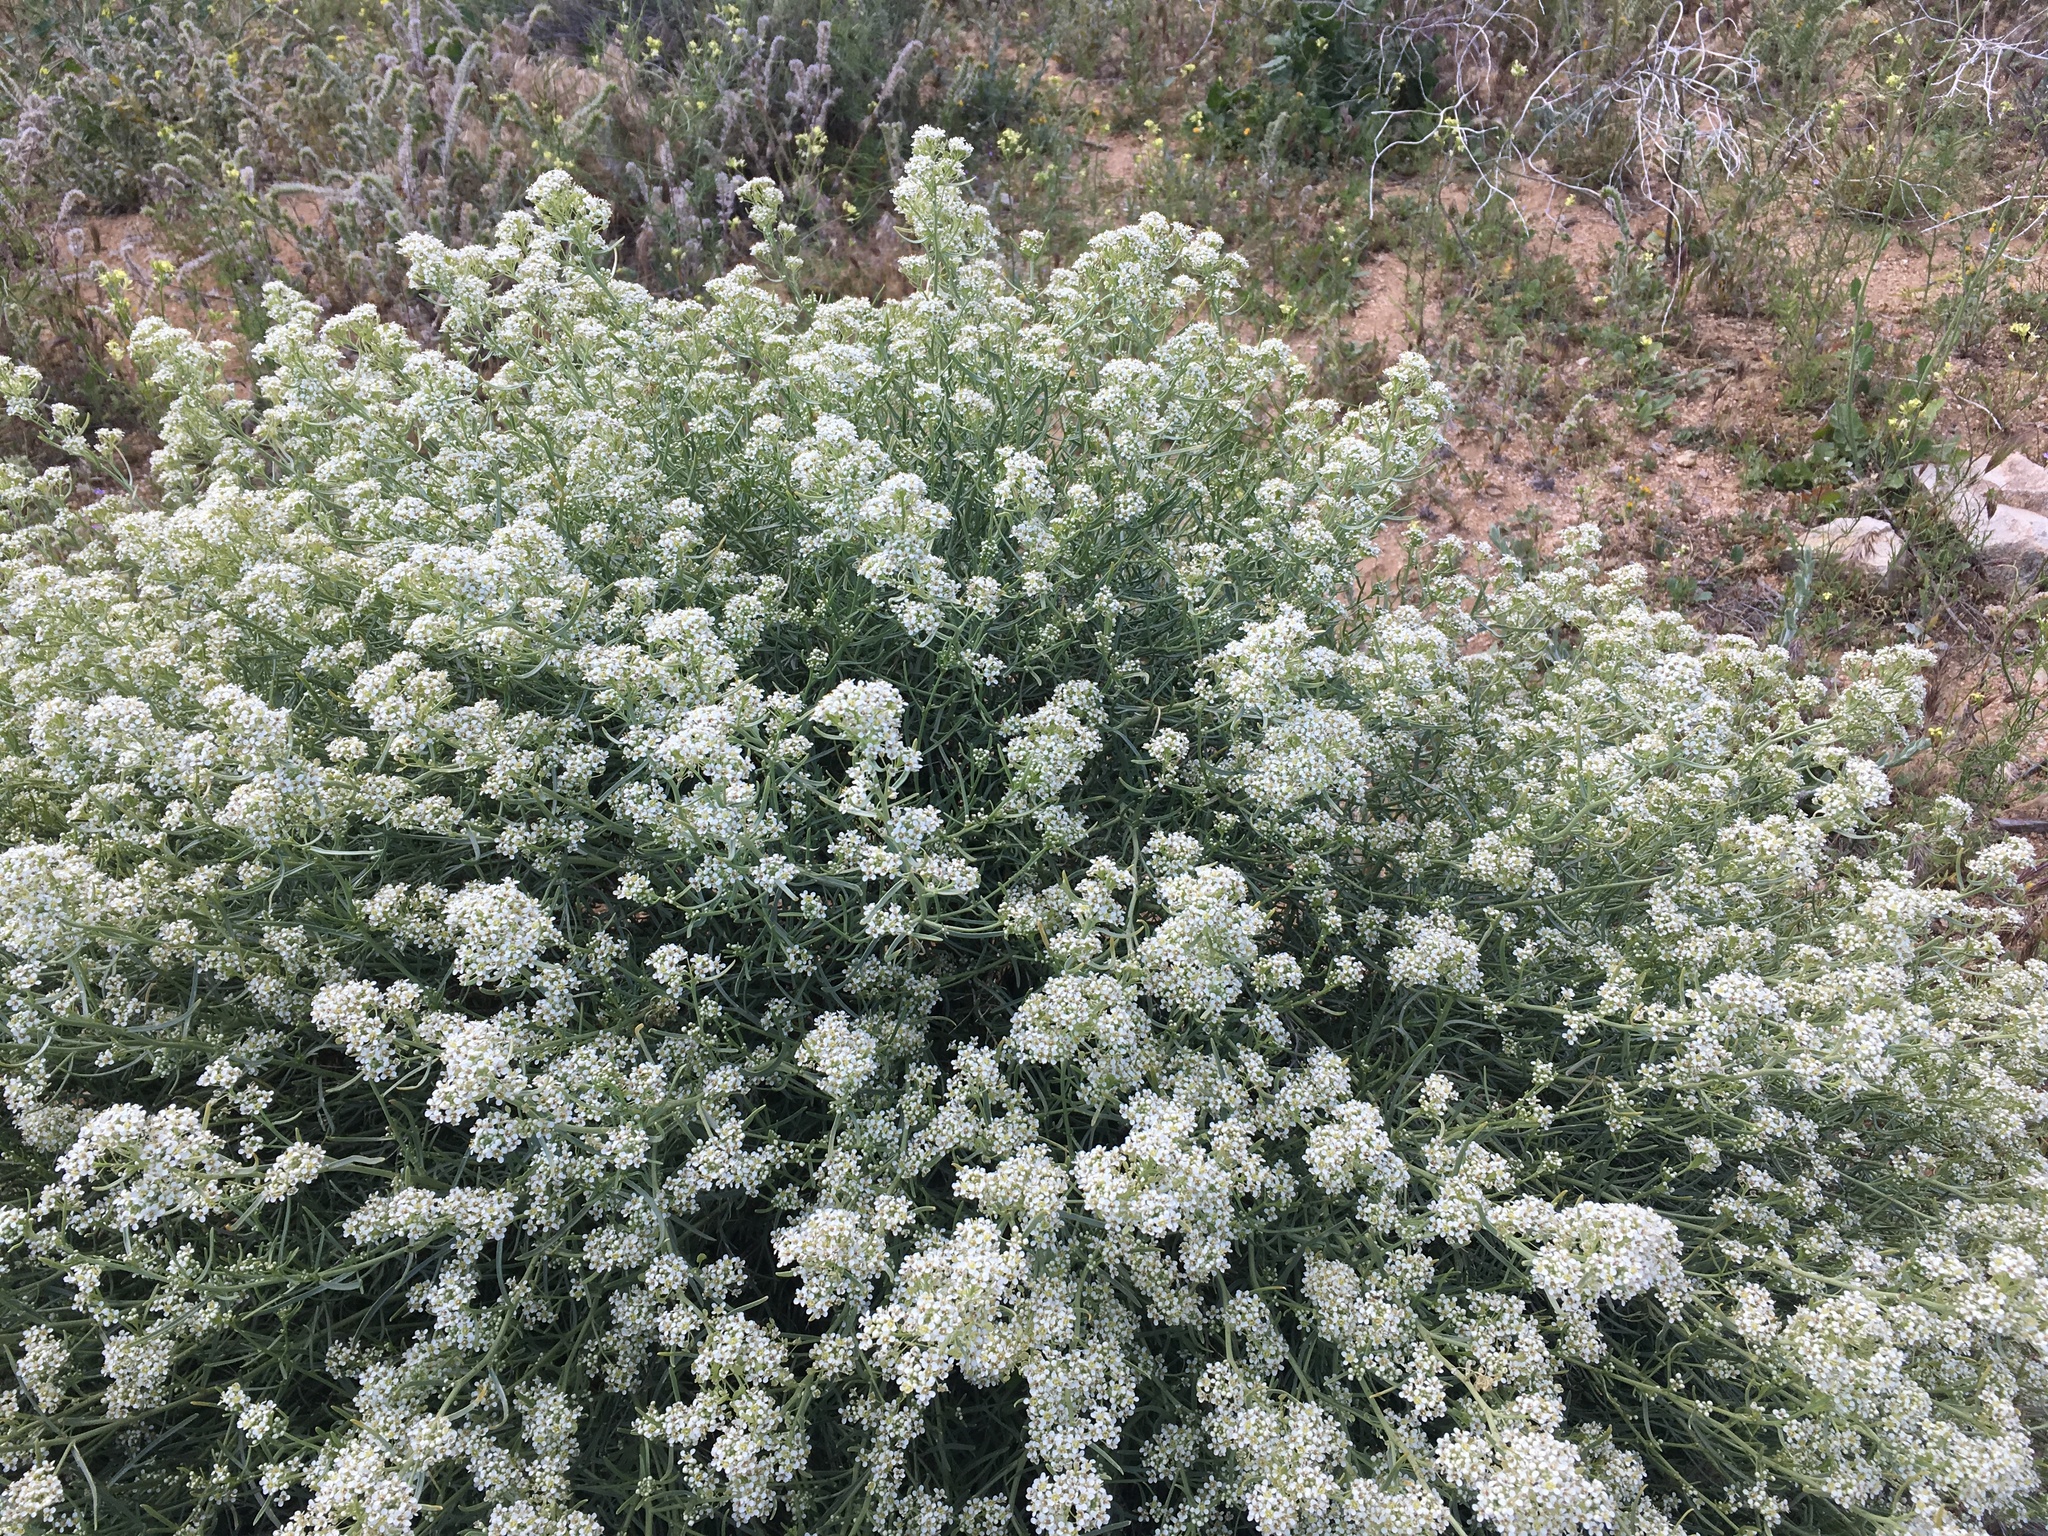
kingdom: Plantae
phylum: Tracheophyta
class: Magnoliopsida
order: Brassicales
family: Brassicaceae
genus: Lepidium
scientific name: Lepidium fremontii
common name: Fremont's pepperwort
